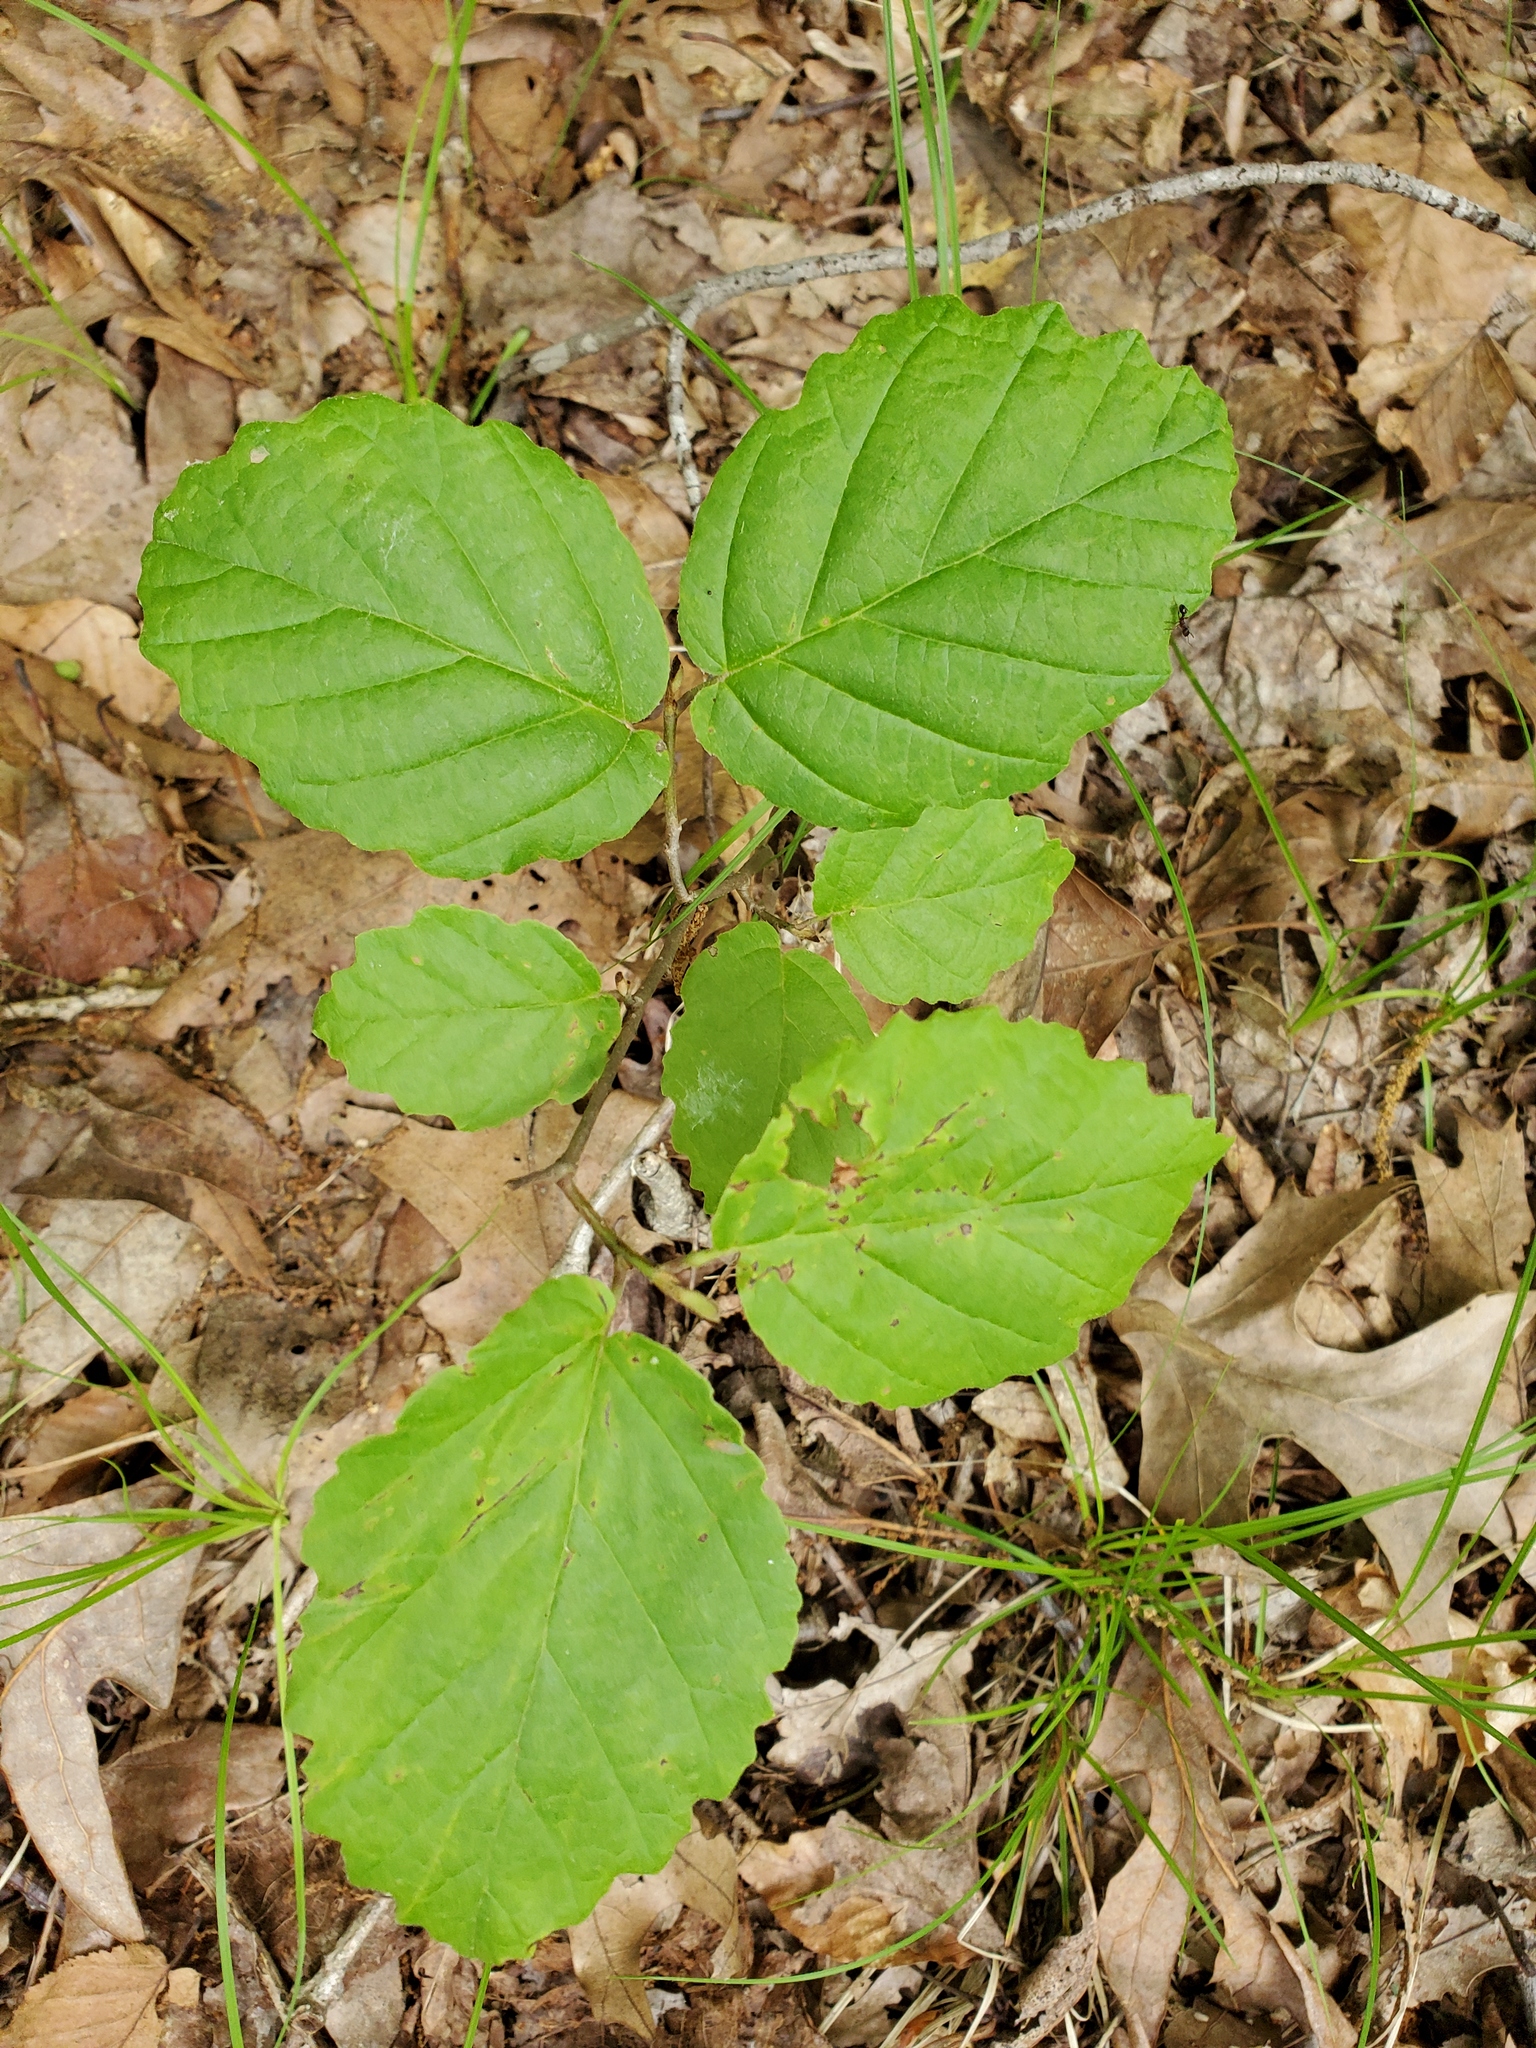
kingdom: Plantae
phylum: Tracheophyta
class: Magnoliopsida
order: Saxifragales
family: Hamamelidaceae
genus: Hamamelis
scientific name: Hamamelis virginiana
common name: Witch-hazel
